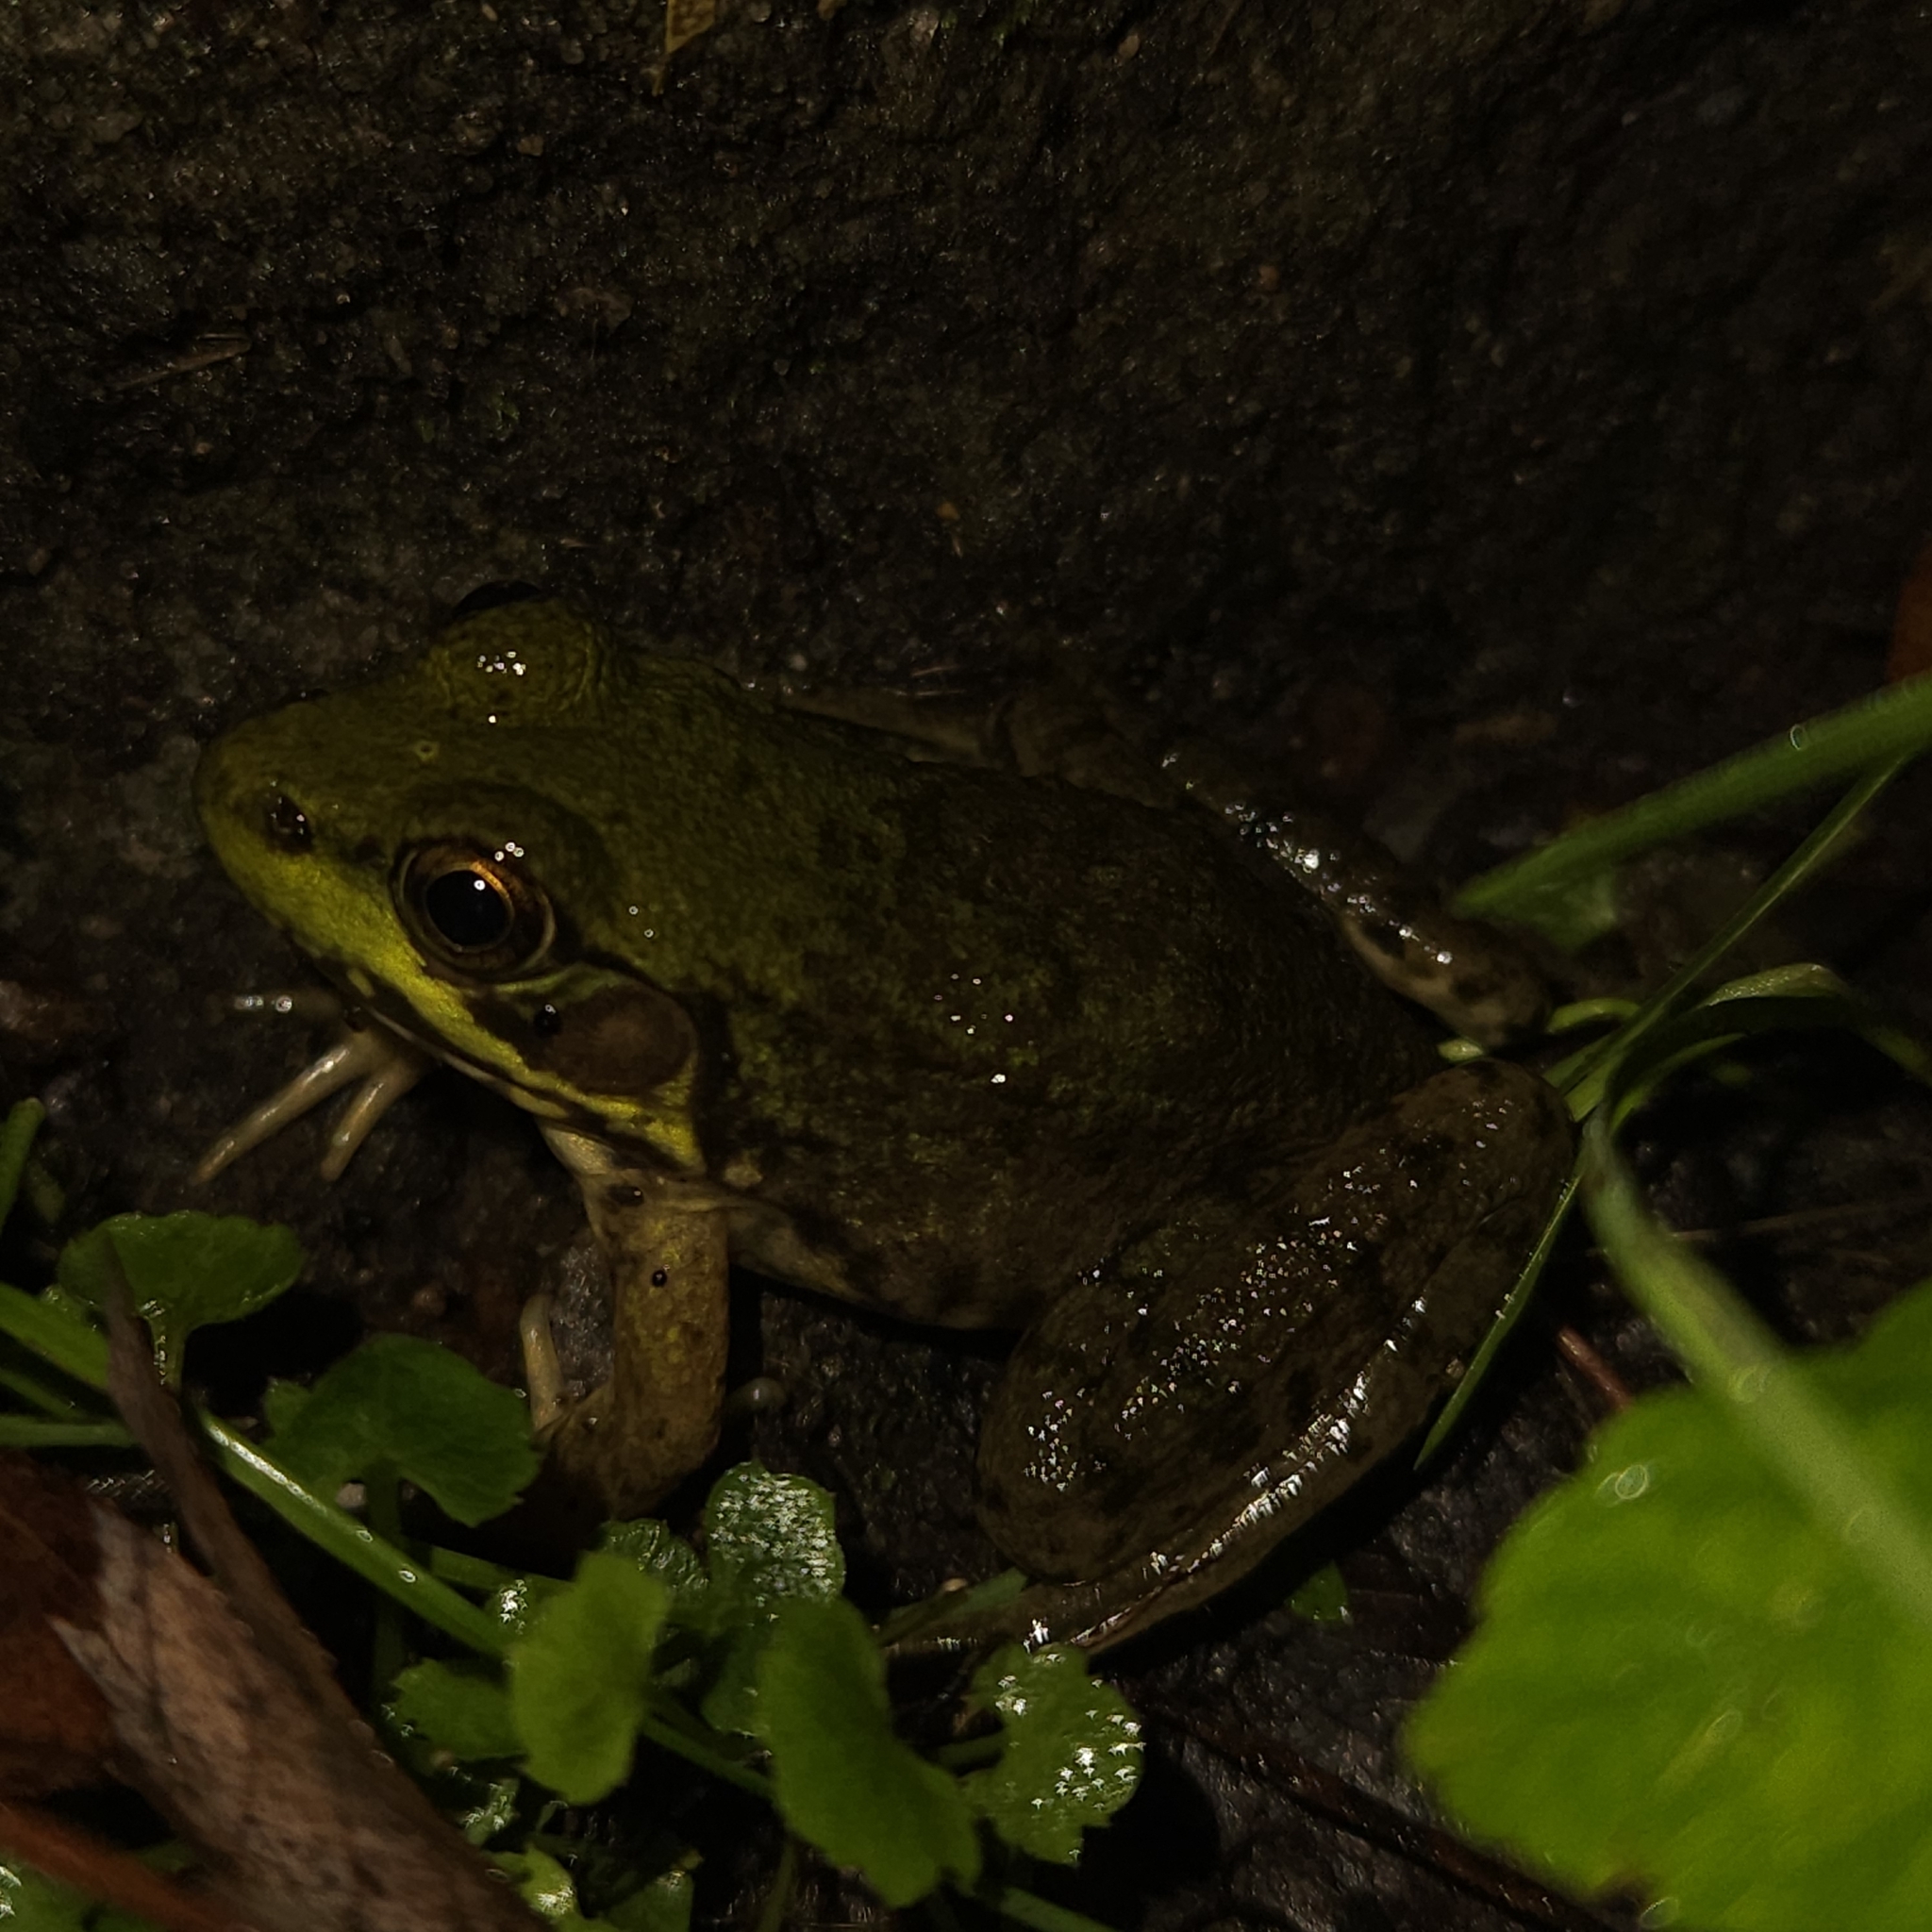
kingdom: Animalia
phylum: Chordata
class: Amphibia
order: Anura
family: Ranidae
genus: Lithobates
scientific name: Lithobates clamitans
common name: Green frog
